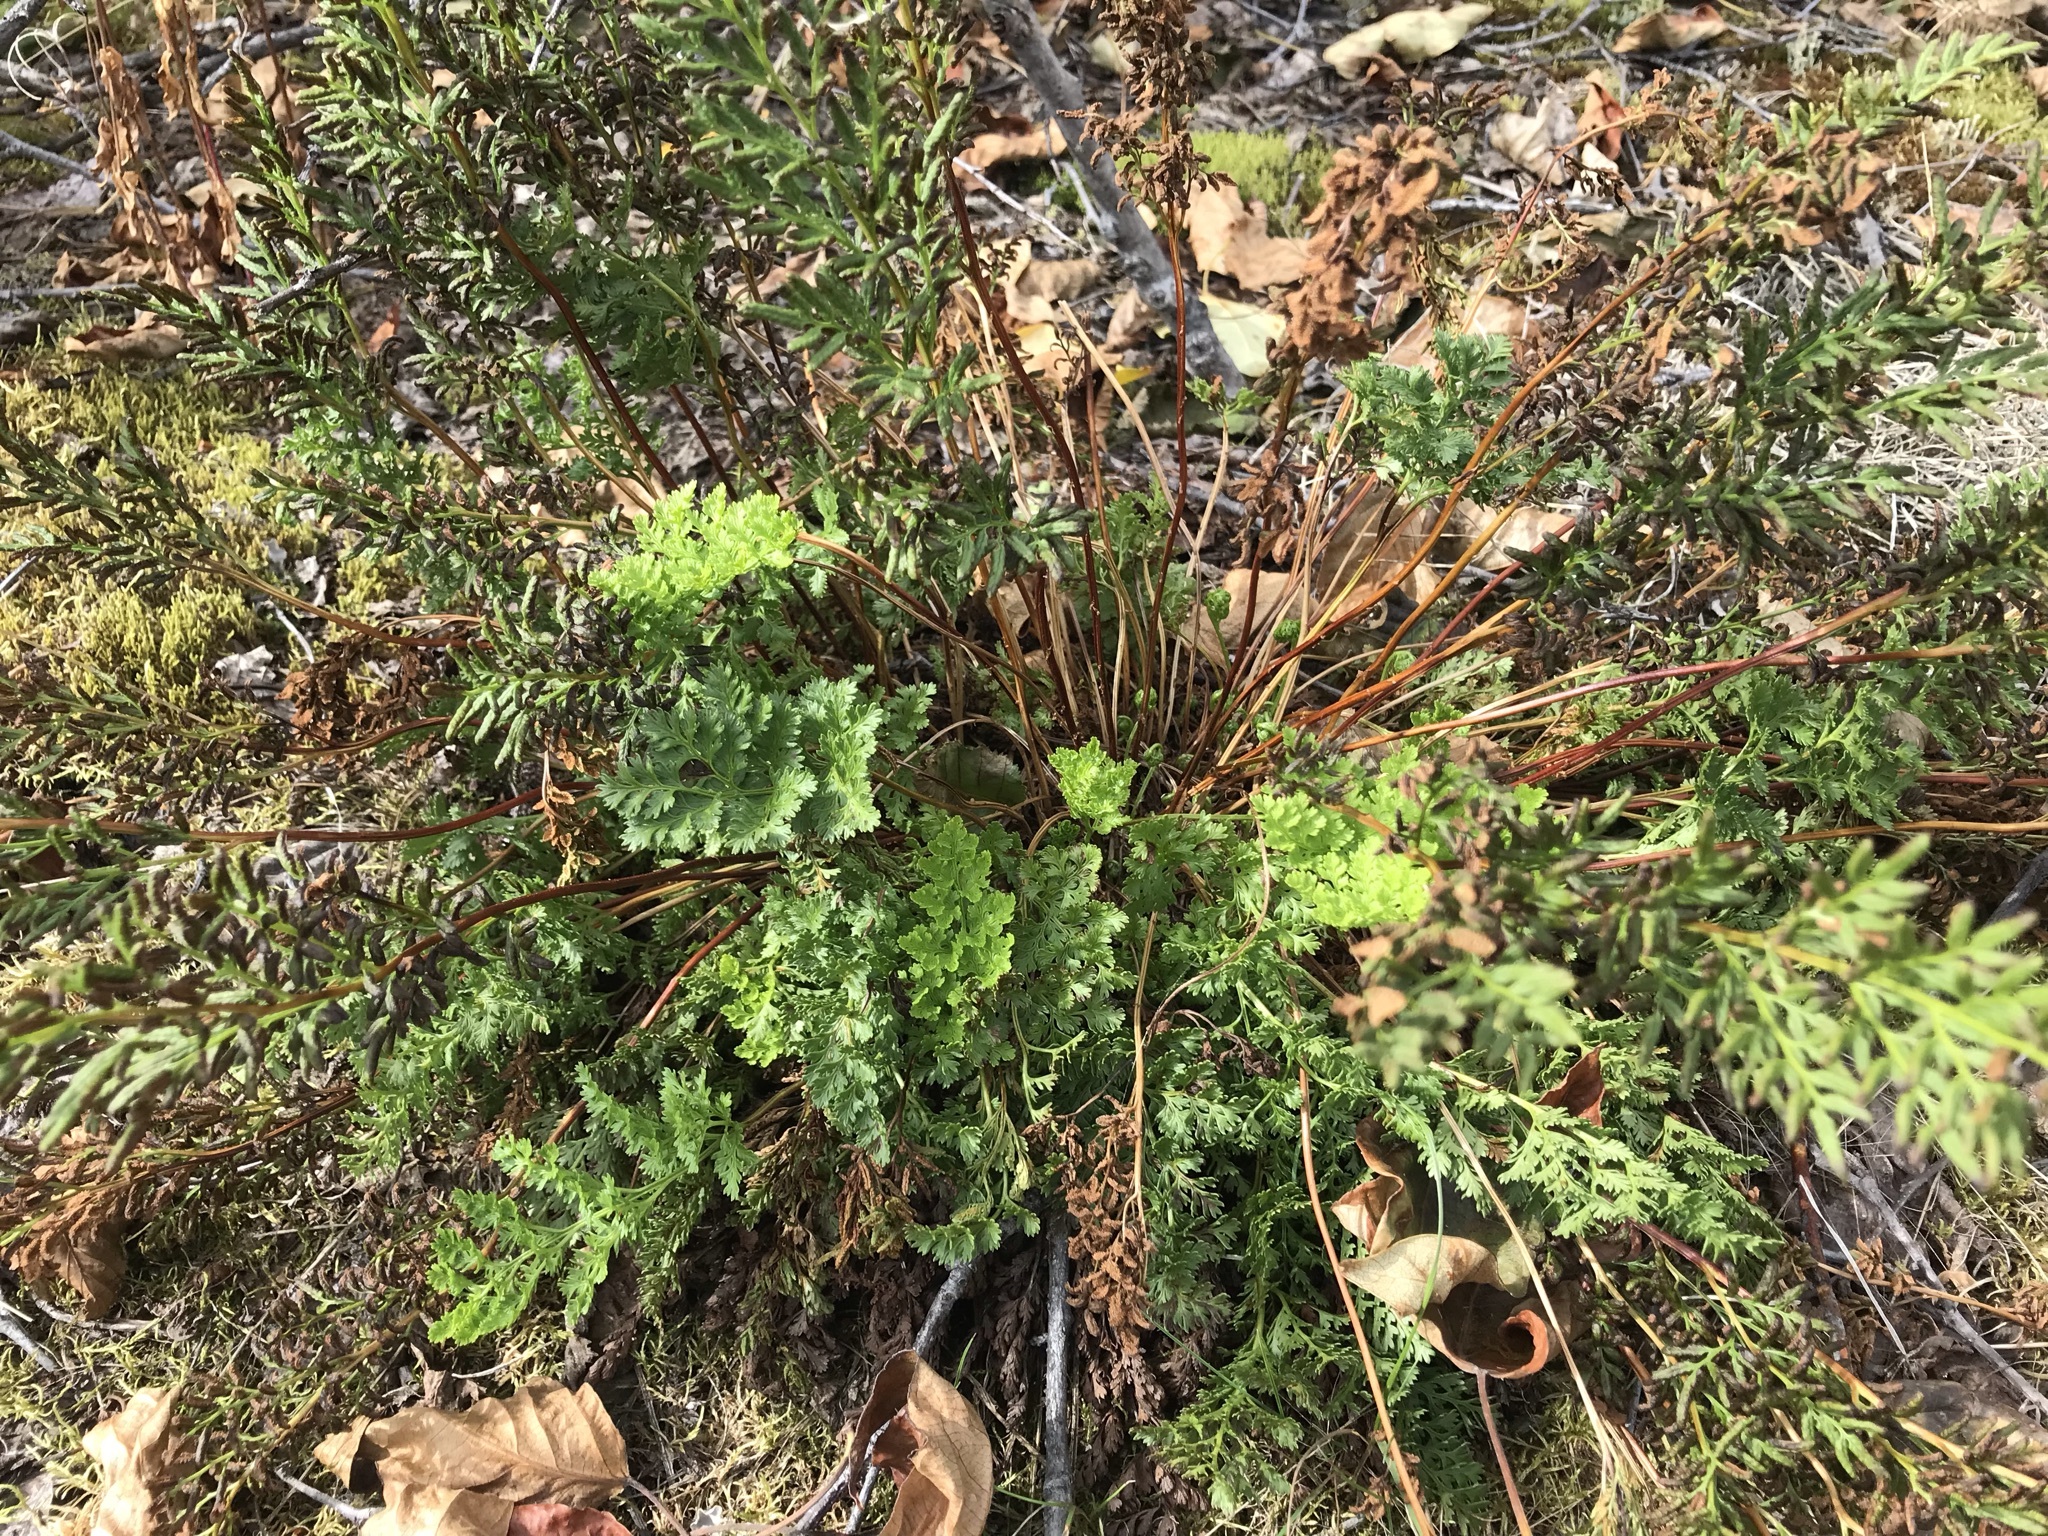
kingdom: Plantae
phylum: Tracheophyta
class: Polypodiopsida
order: Polypodiales
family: Pteridaceae
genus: Cryptogramma
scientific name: Cryptogramma sitchensis
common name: Alaska parsley fern
